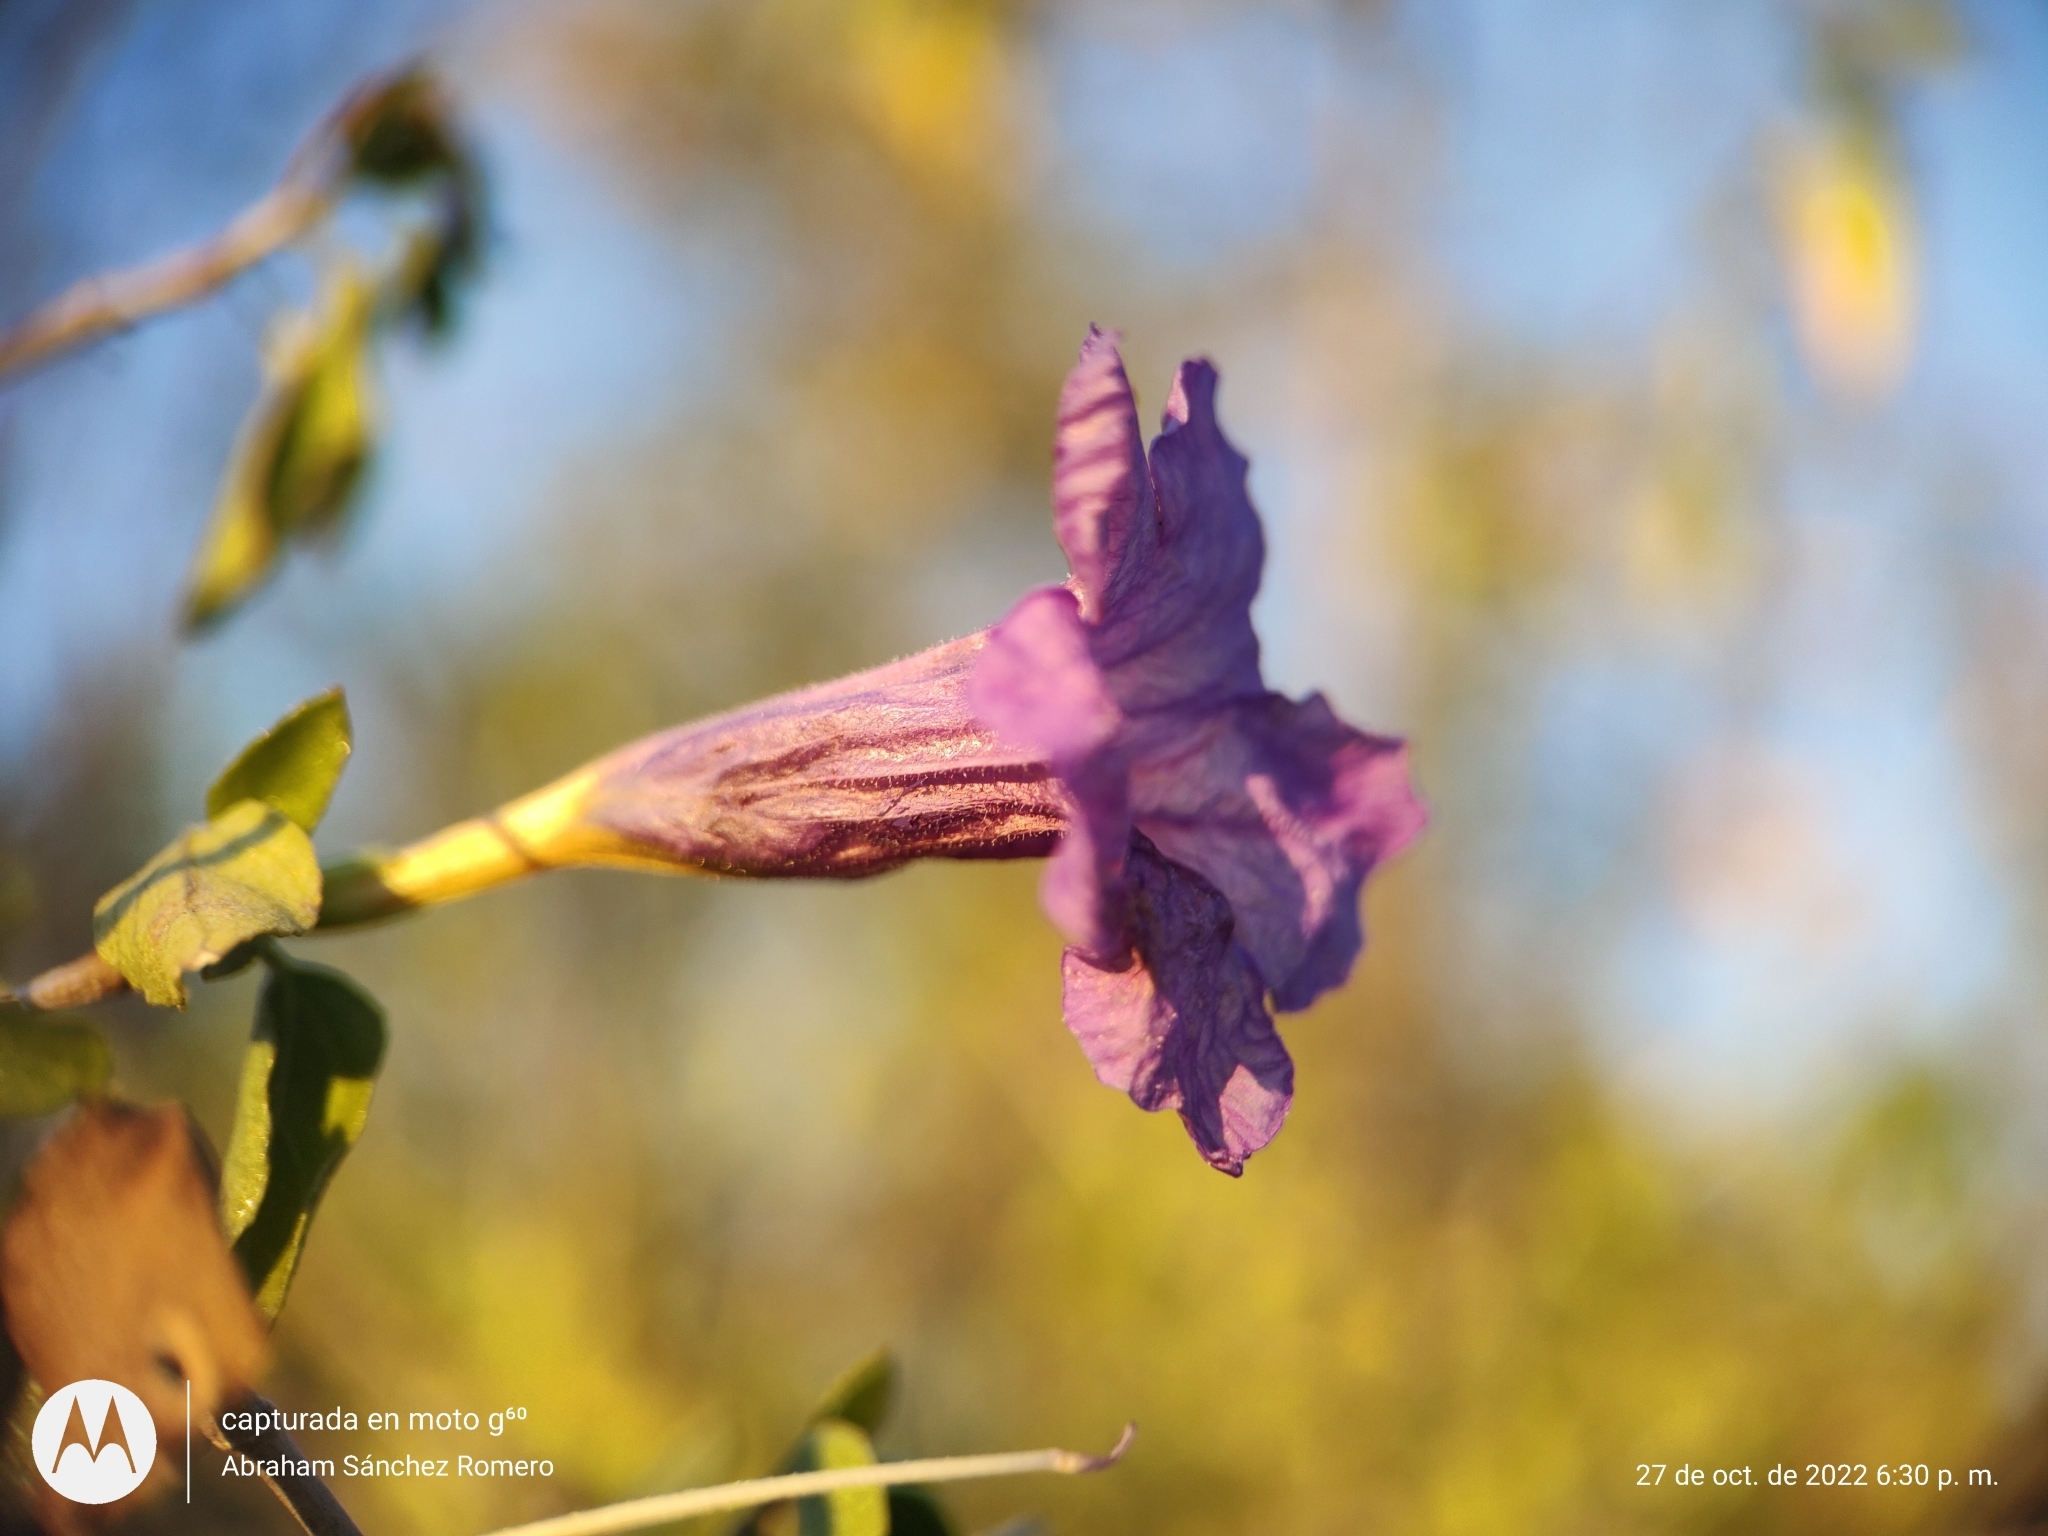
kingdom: Plantae
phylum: Tracheophyta
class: Magnoliopsida
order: Lamiales
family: Acanthaceae
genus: Ruellia
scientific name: Ruellia californica
